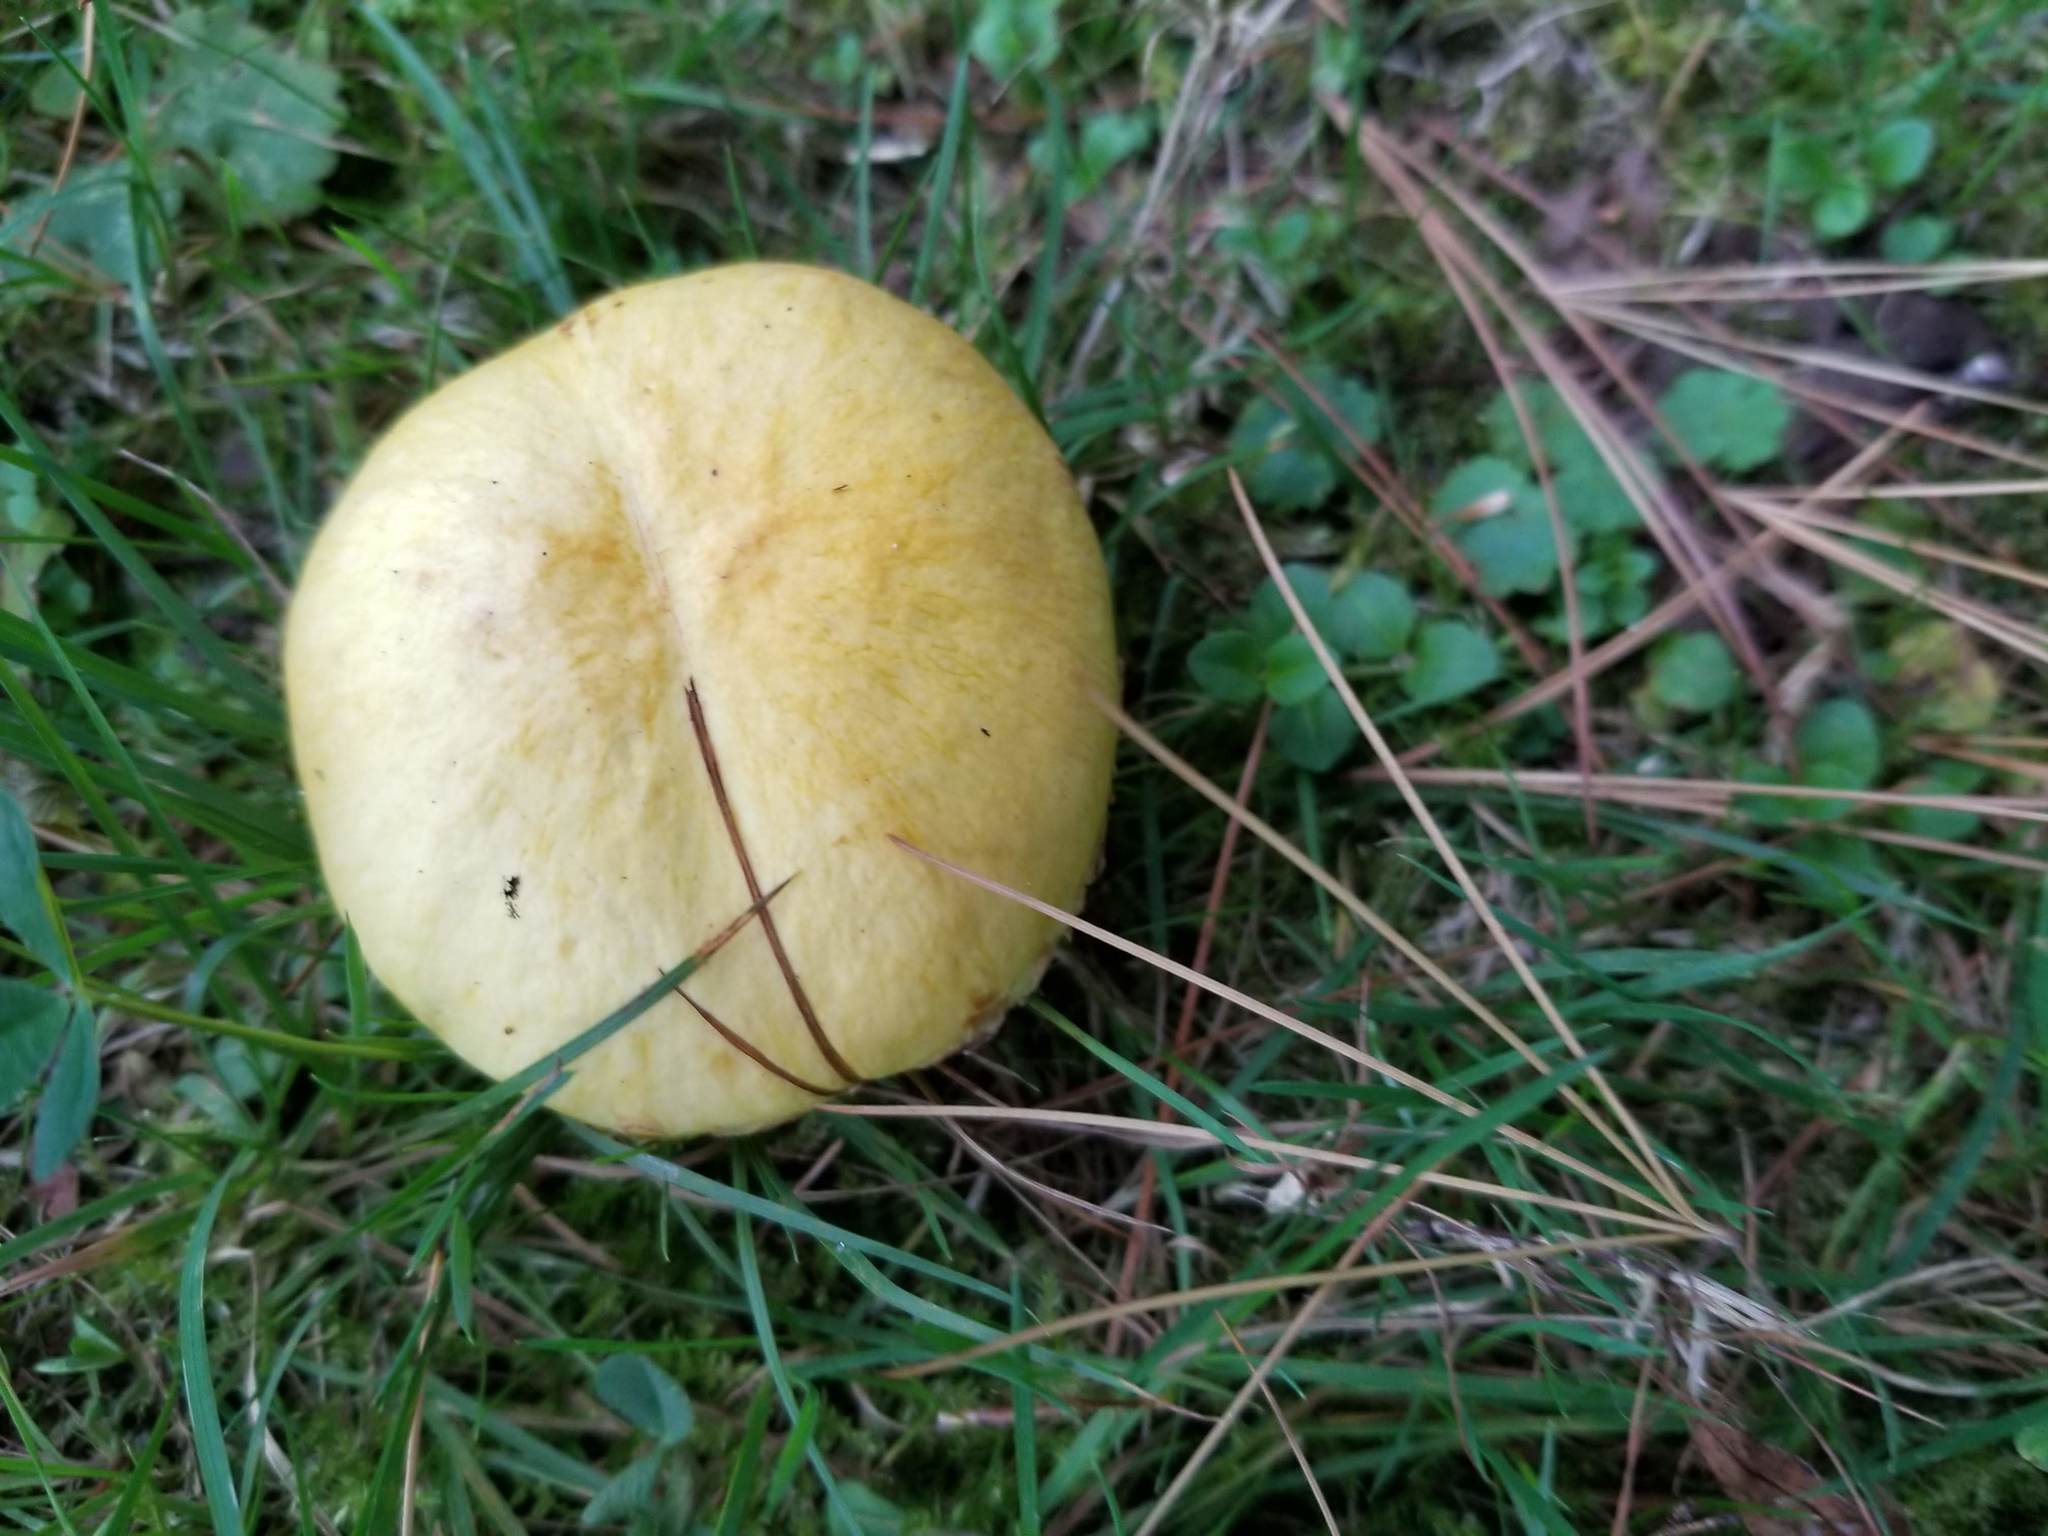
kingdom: Fungi
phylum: Basidiomycota
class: Agaricomycetes
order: Boletales
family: Suillaceae
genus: Suillus
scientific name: Suillus americanus
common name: Chicken fat mushroom
